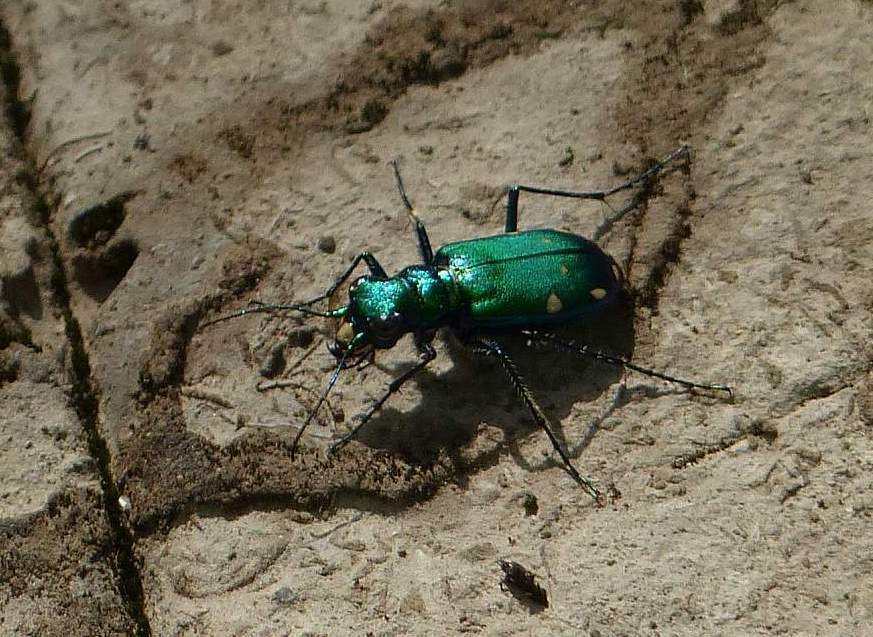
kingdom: Animalia
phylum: Arthropoda
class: Insecta
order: Coleoptera
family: Carabidae
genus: Cicindela
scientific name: Cicindela sexguttata
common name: Six-spotted tiger beetle
